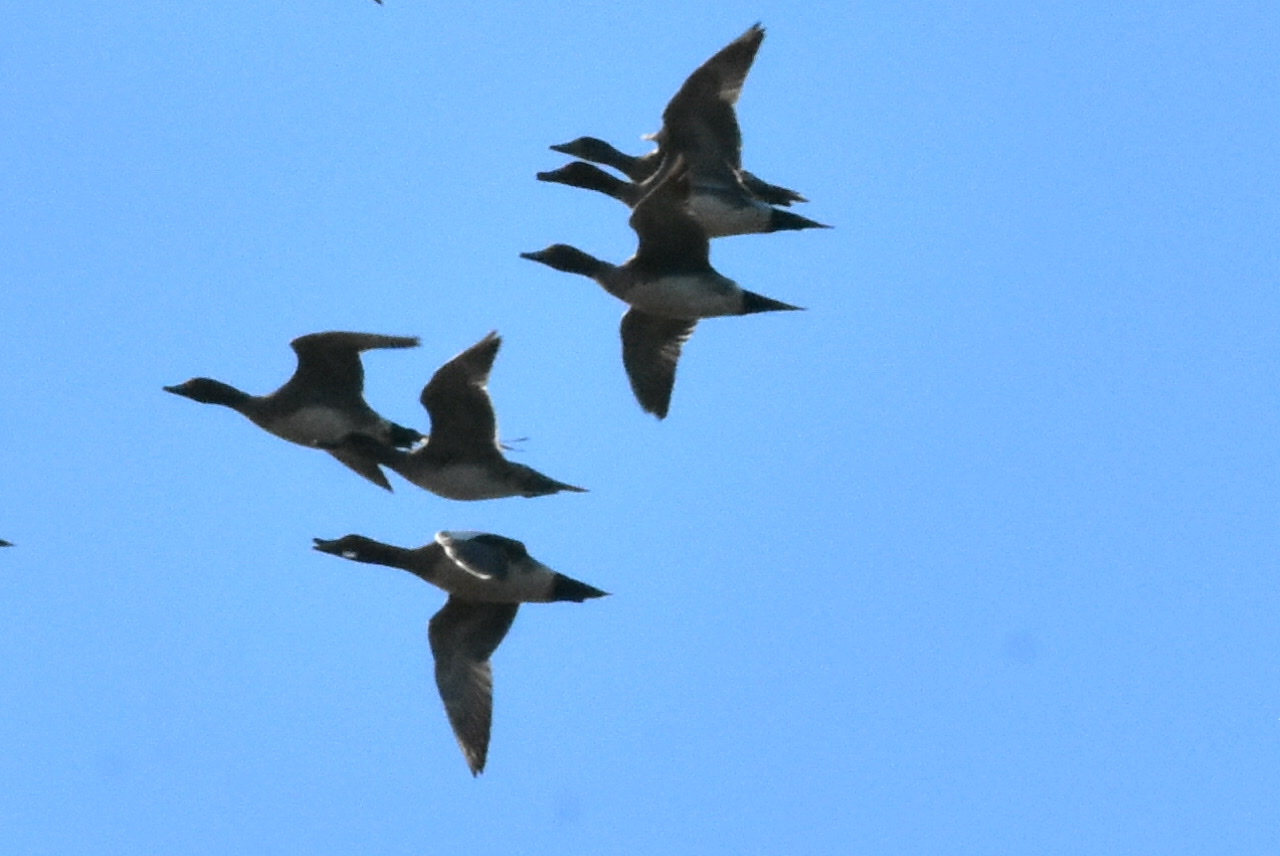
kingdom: Animalia
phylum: Chordata
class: Aves
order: Anseriformes
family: Anatidae
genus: Mareca
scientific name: Mareca penelope
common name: Eurasian wigeon
